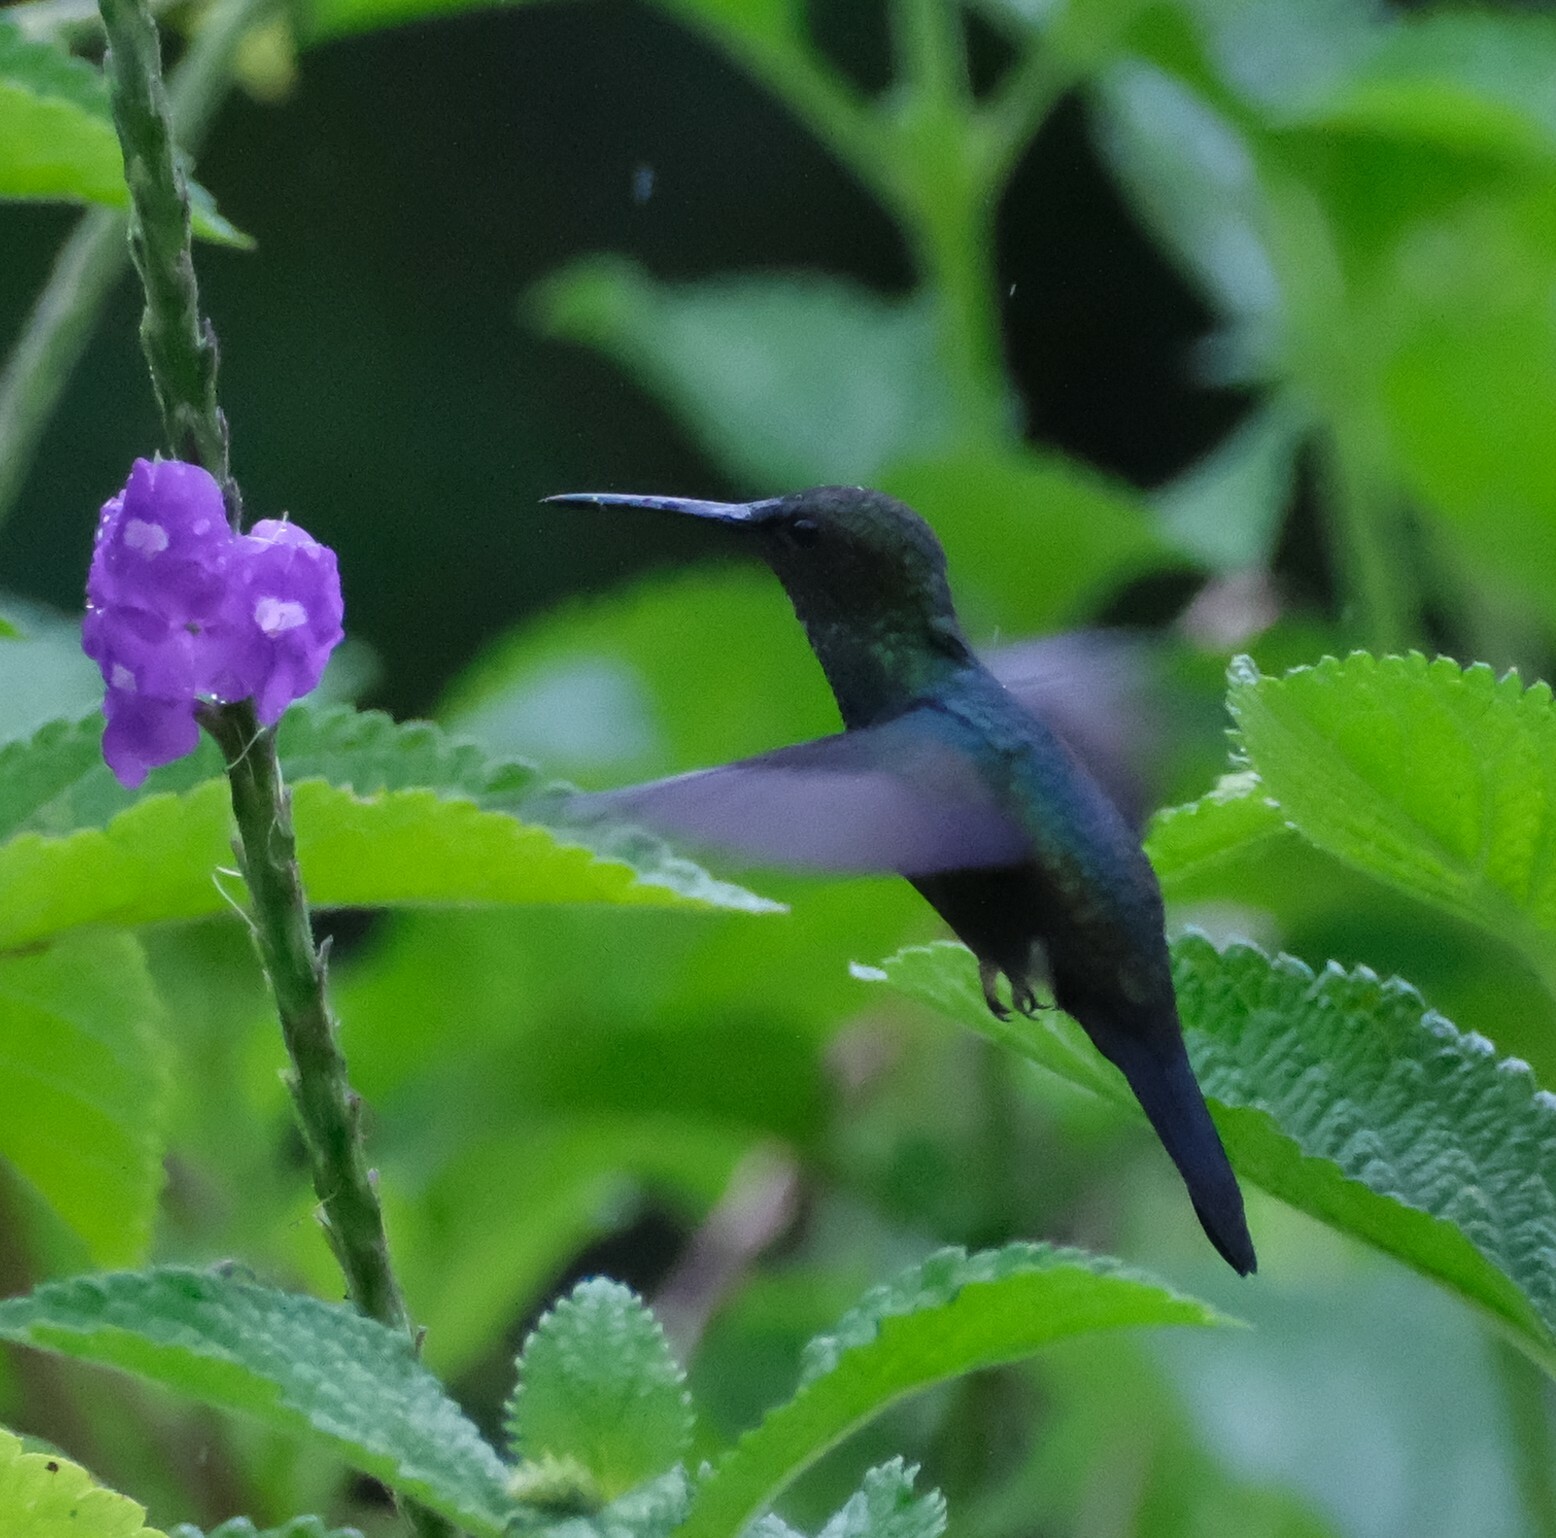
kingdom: Animalia
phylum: Chordata
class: Aves
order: Apodiformes
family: Trochilidae
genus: Thalurania
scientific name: Thalurania furcata
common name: Fork-tailed woodnymph
